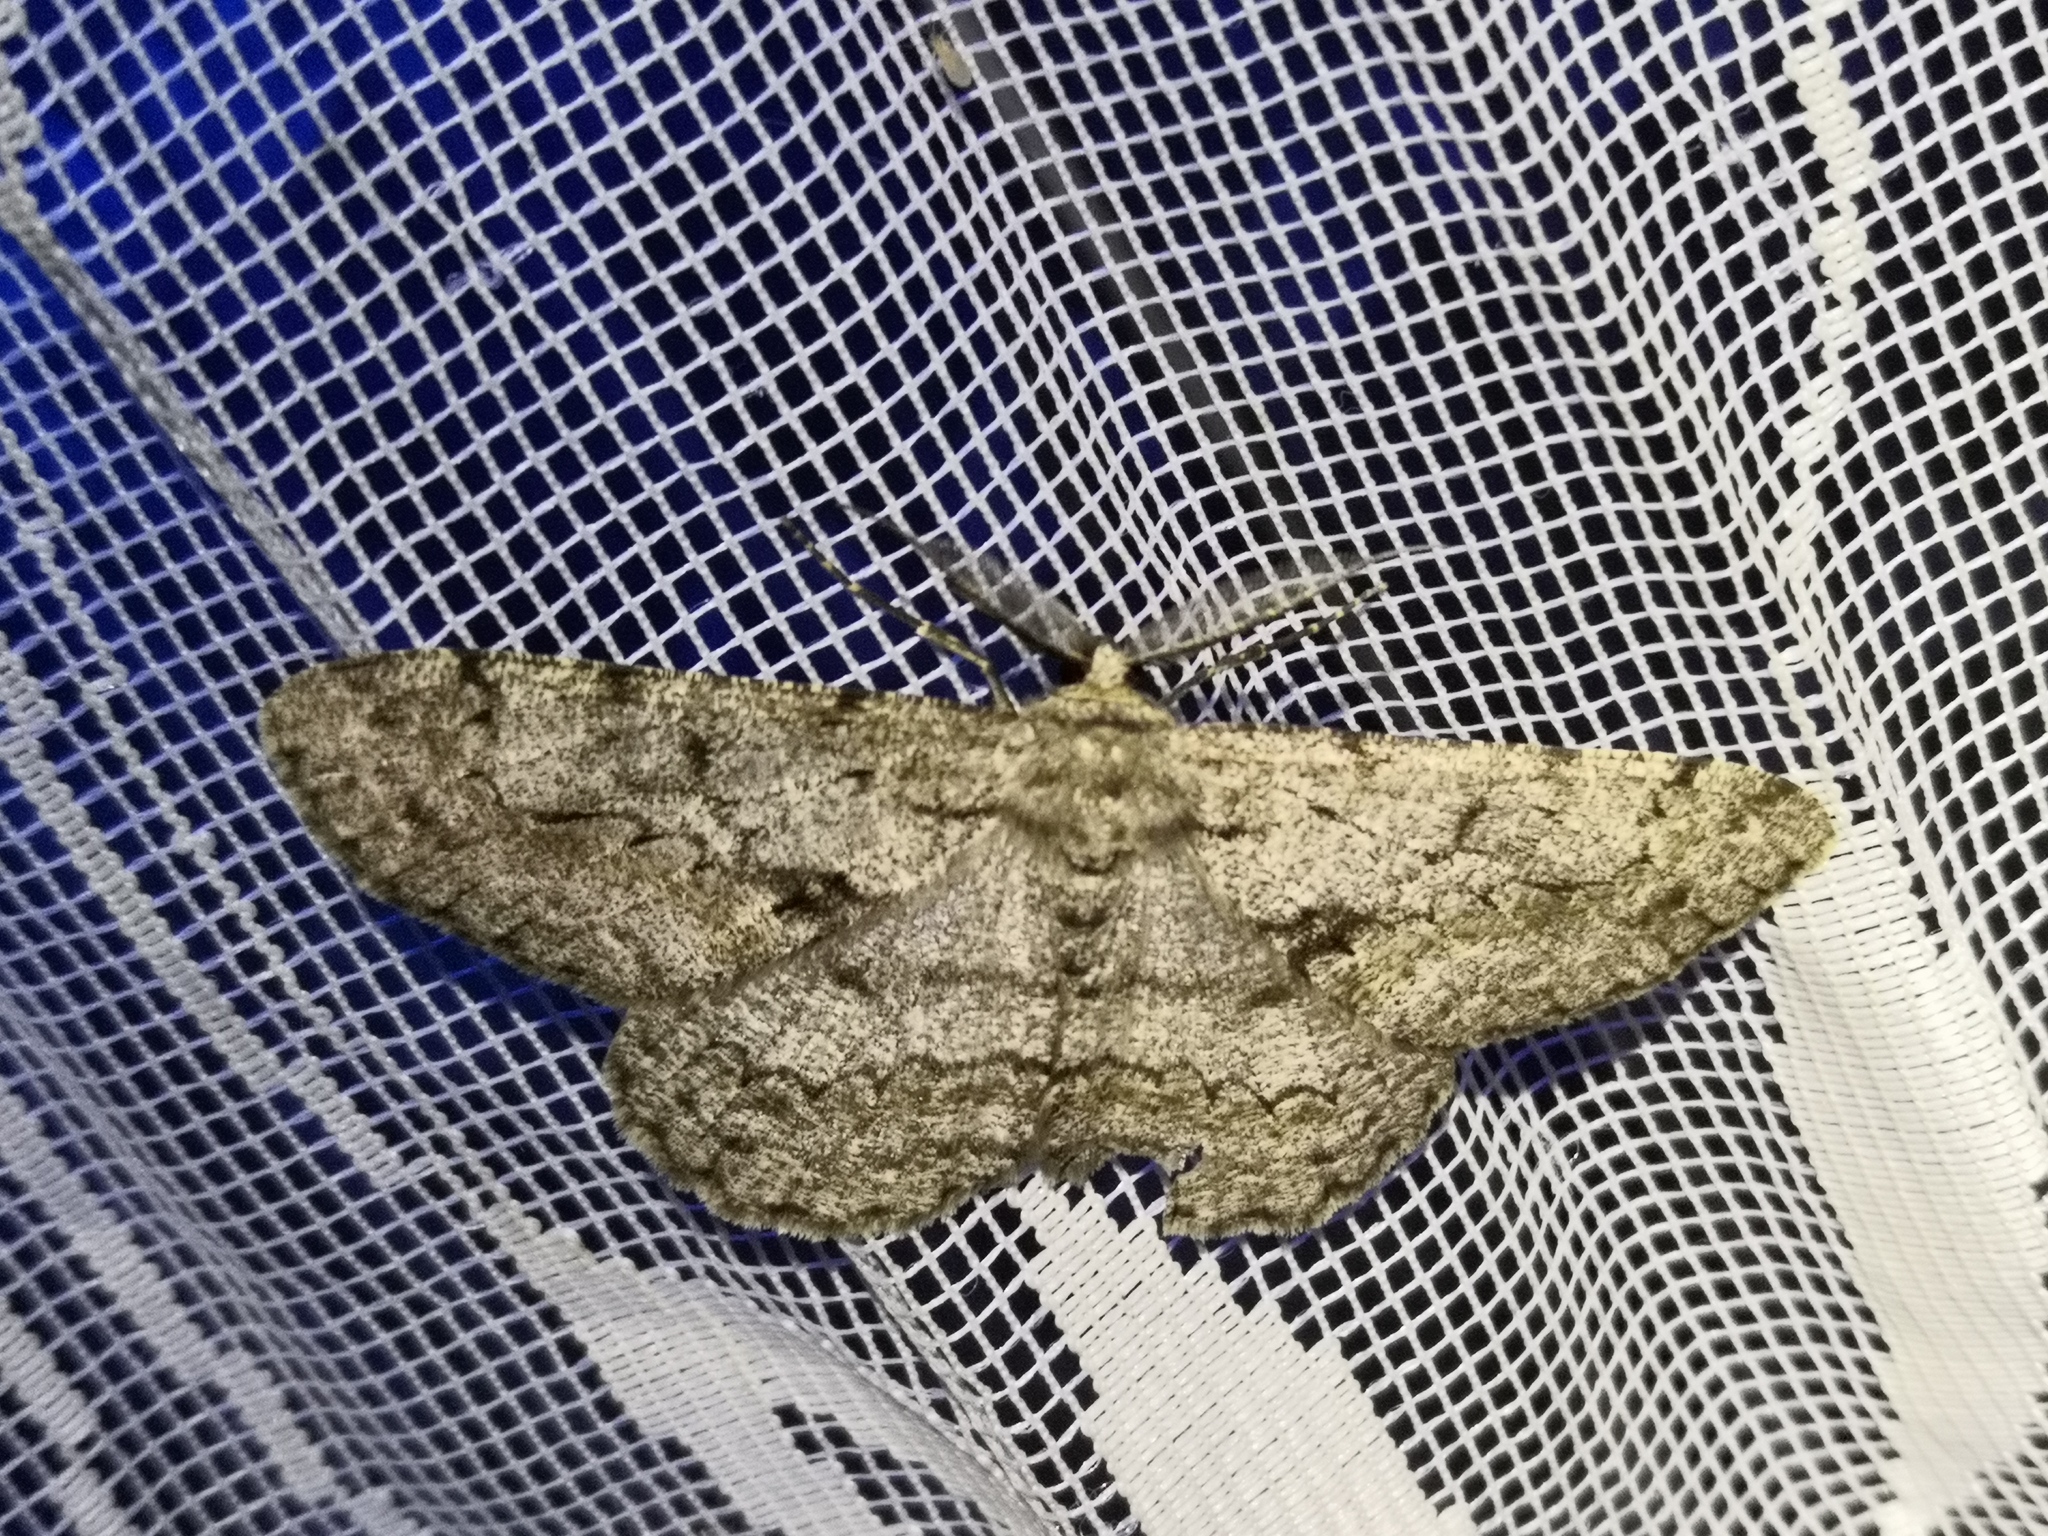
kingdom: Animalia
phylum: Arthropoda
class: Insecta
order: Lepidoptera
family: Geometridae
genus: Hypomecis
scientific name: Hypomecis roboraria
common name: Great oak beauty
